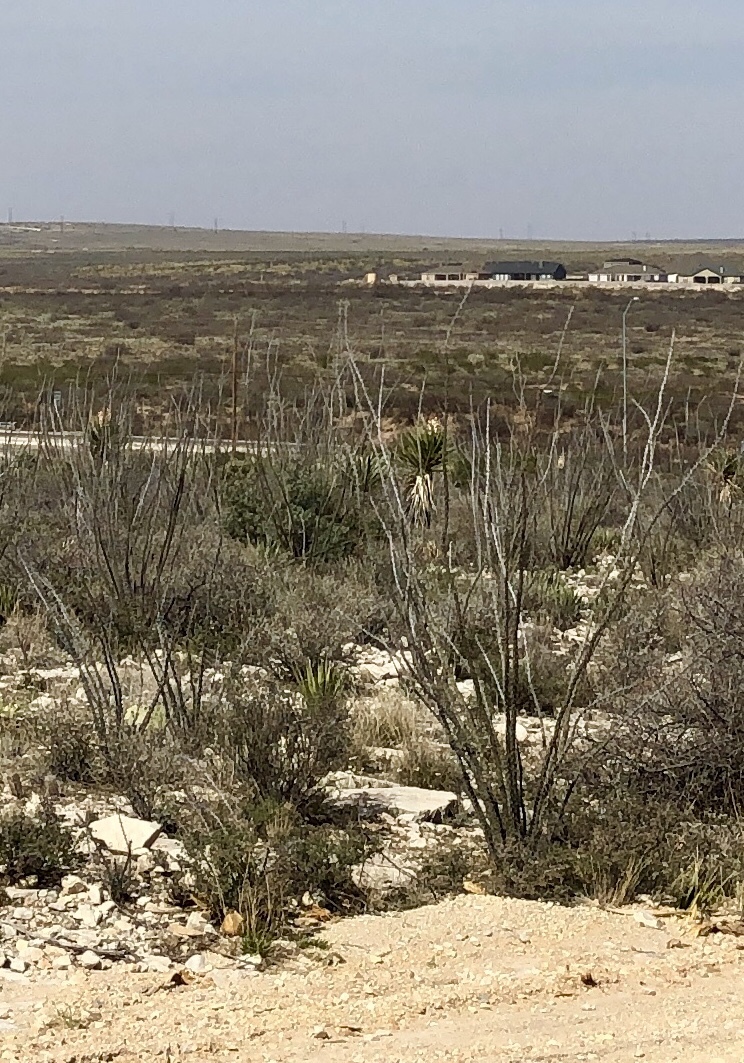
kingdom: Plantae
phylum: Tracheophyta
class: Magnoliopsida
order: Ericales
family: Fouquieriaceae
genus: Fouquieria
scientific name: Fouquieria splendens
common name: Vine-cactus
